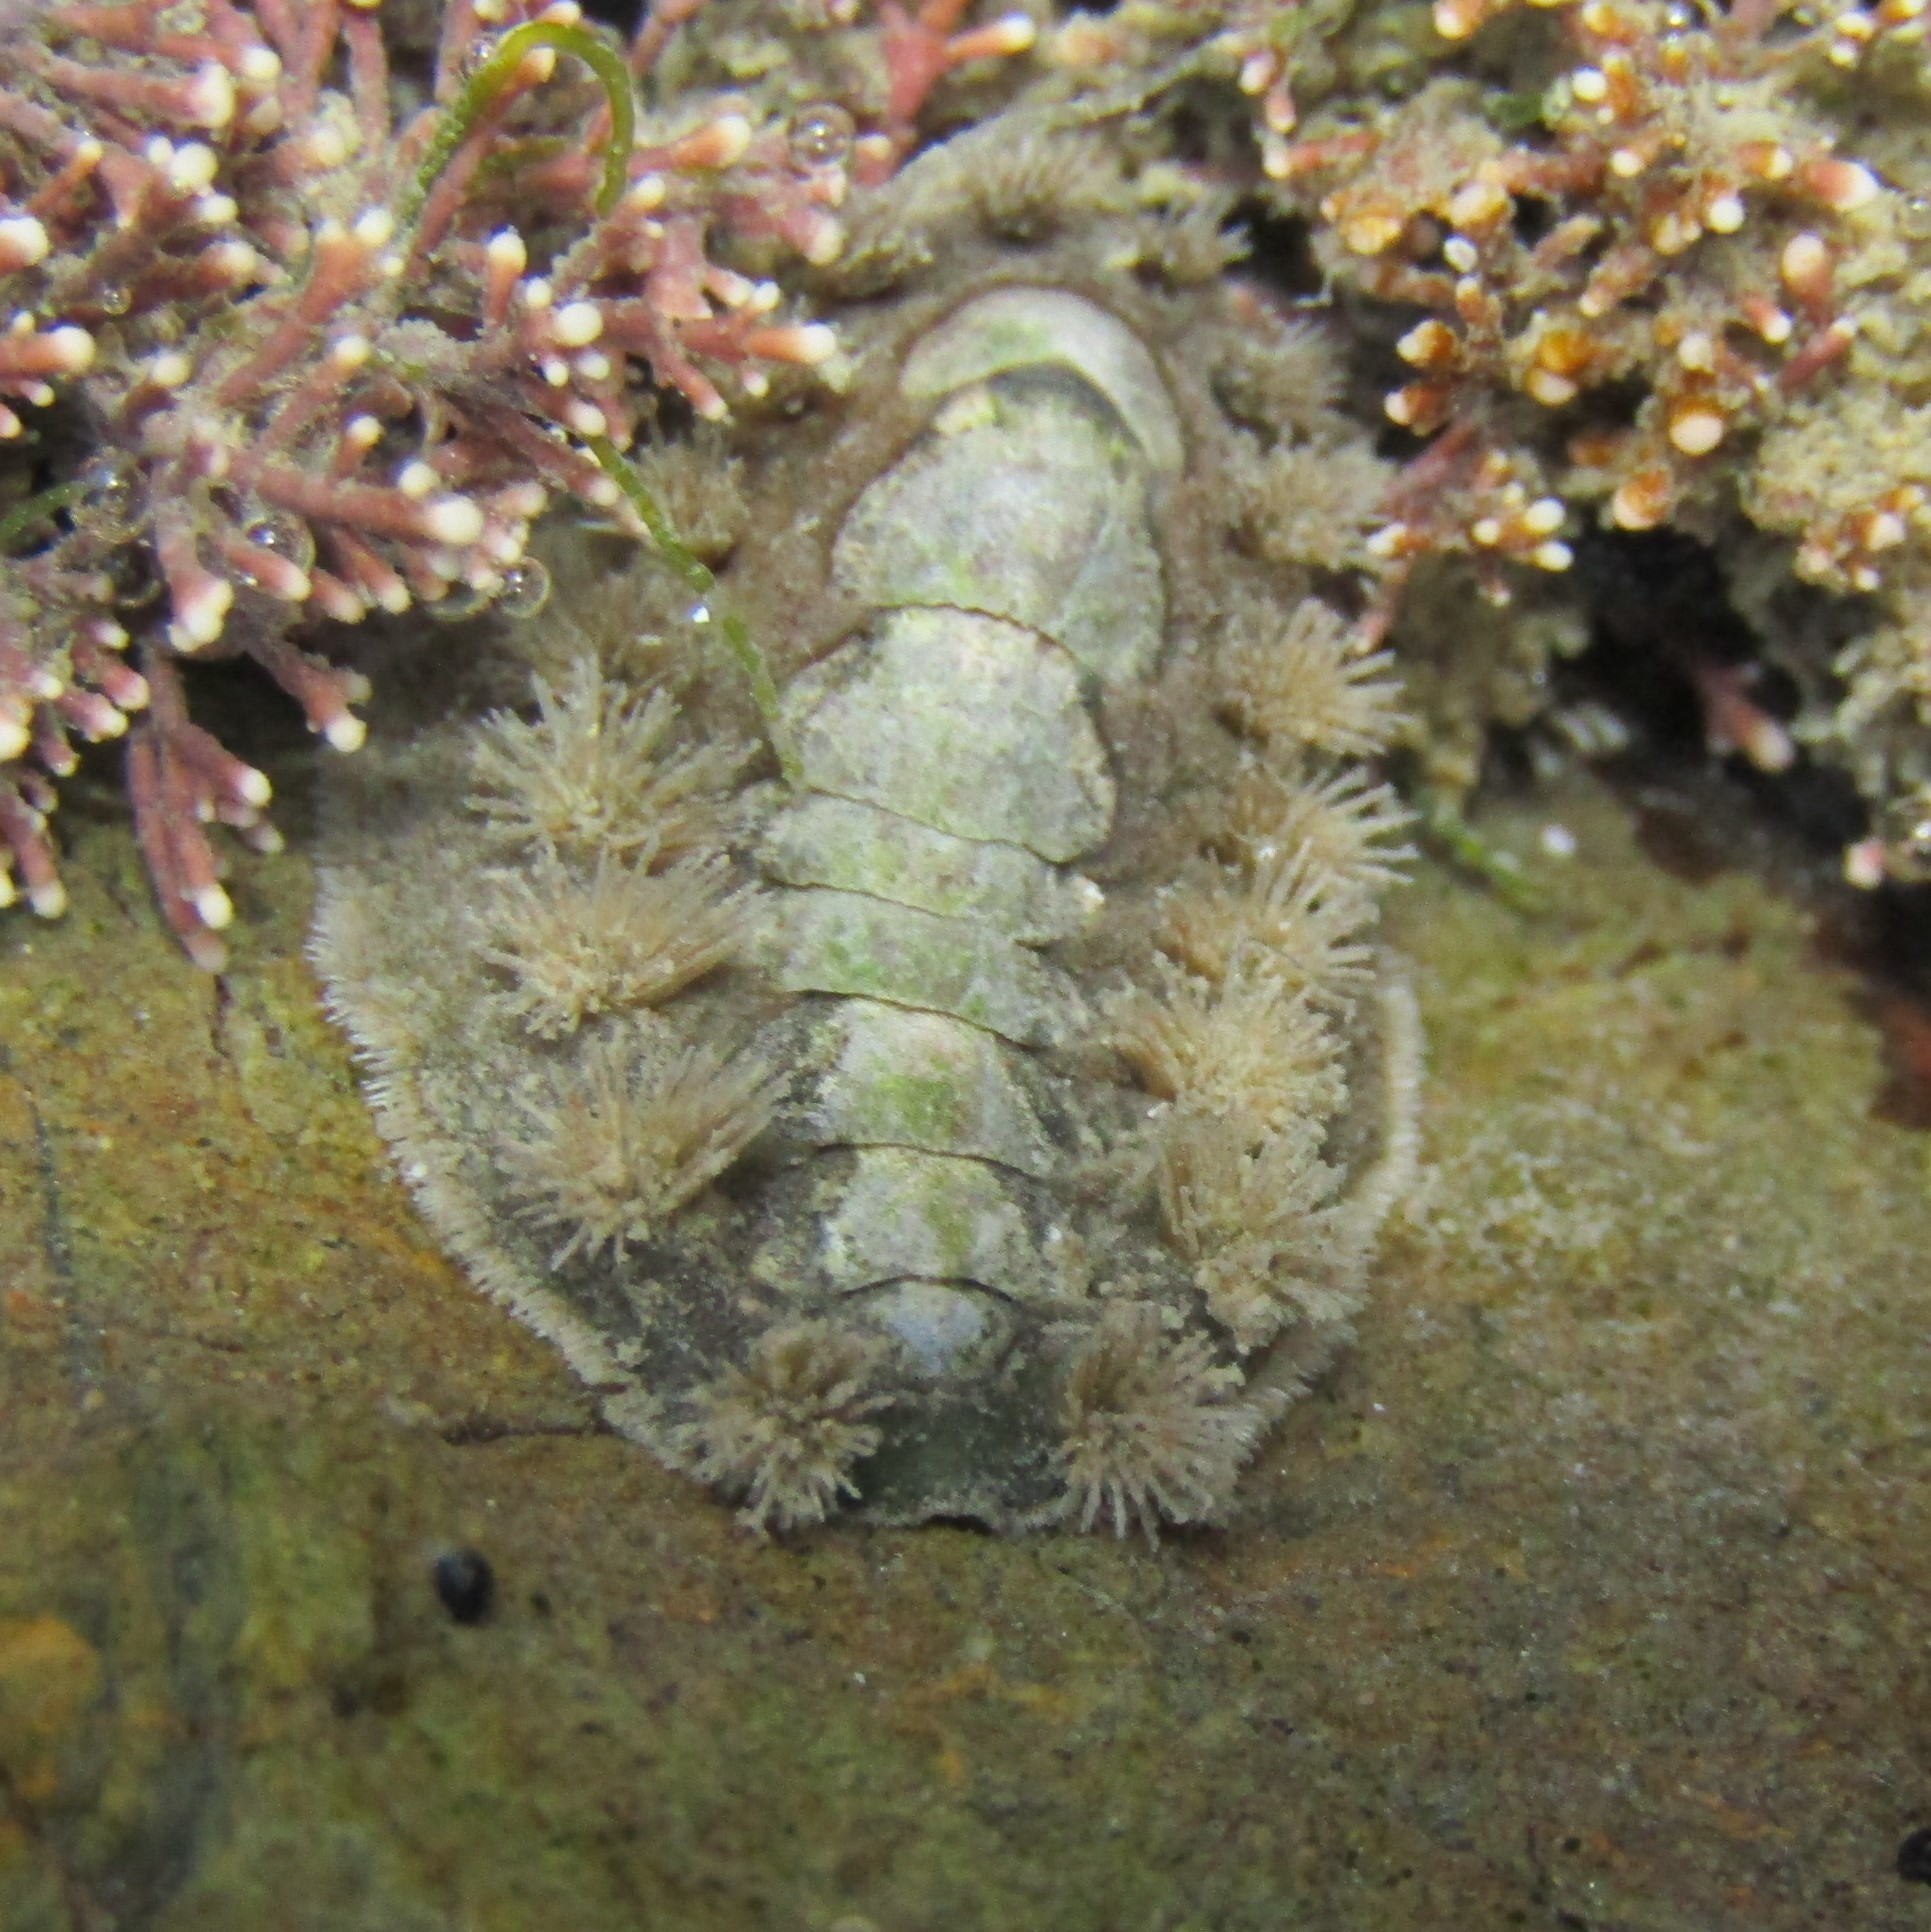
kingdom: Animalia
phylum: Mollusca
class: Polyplacophora
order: Chitonida
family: Acanthochitonidae
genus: Acanthochitona
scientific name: Acanthochitona zelandica
